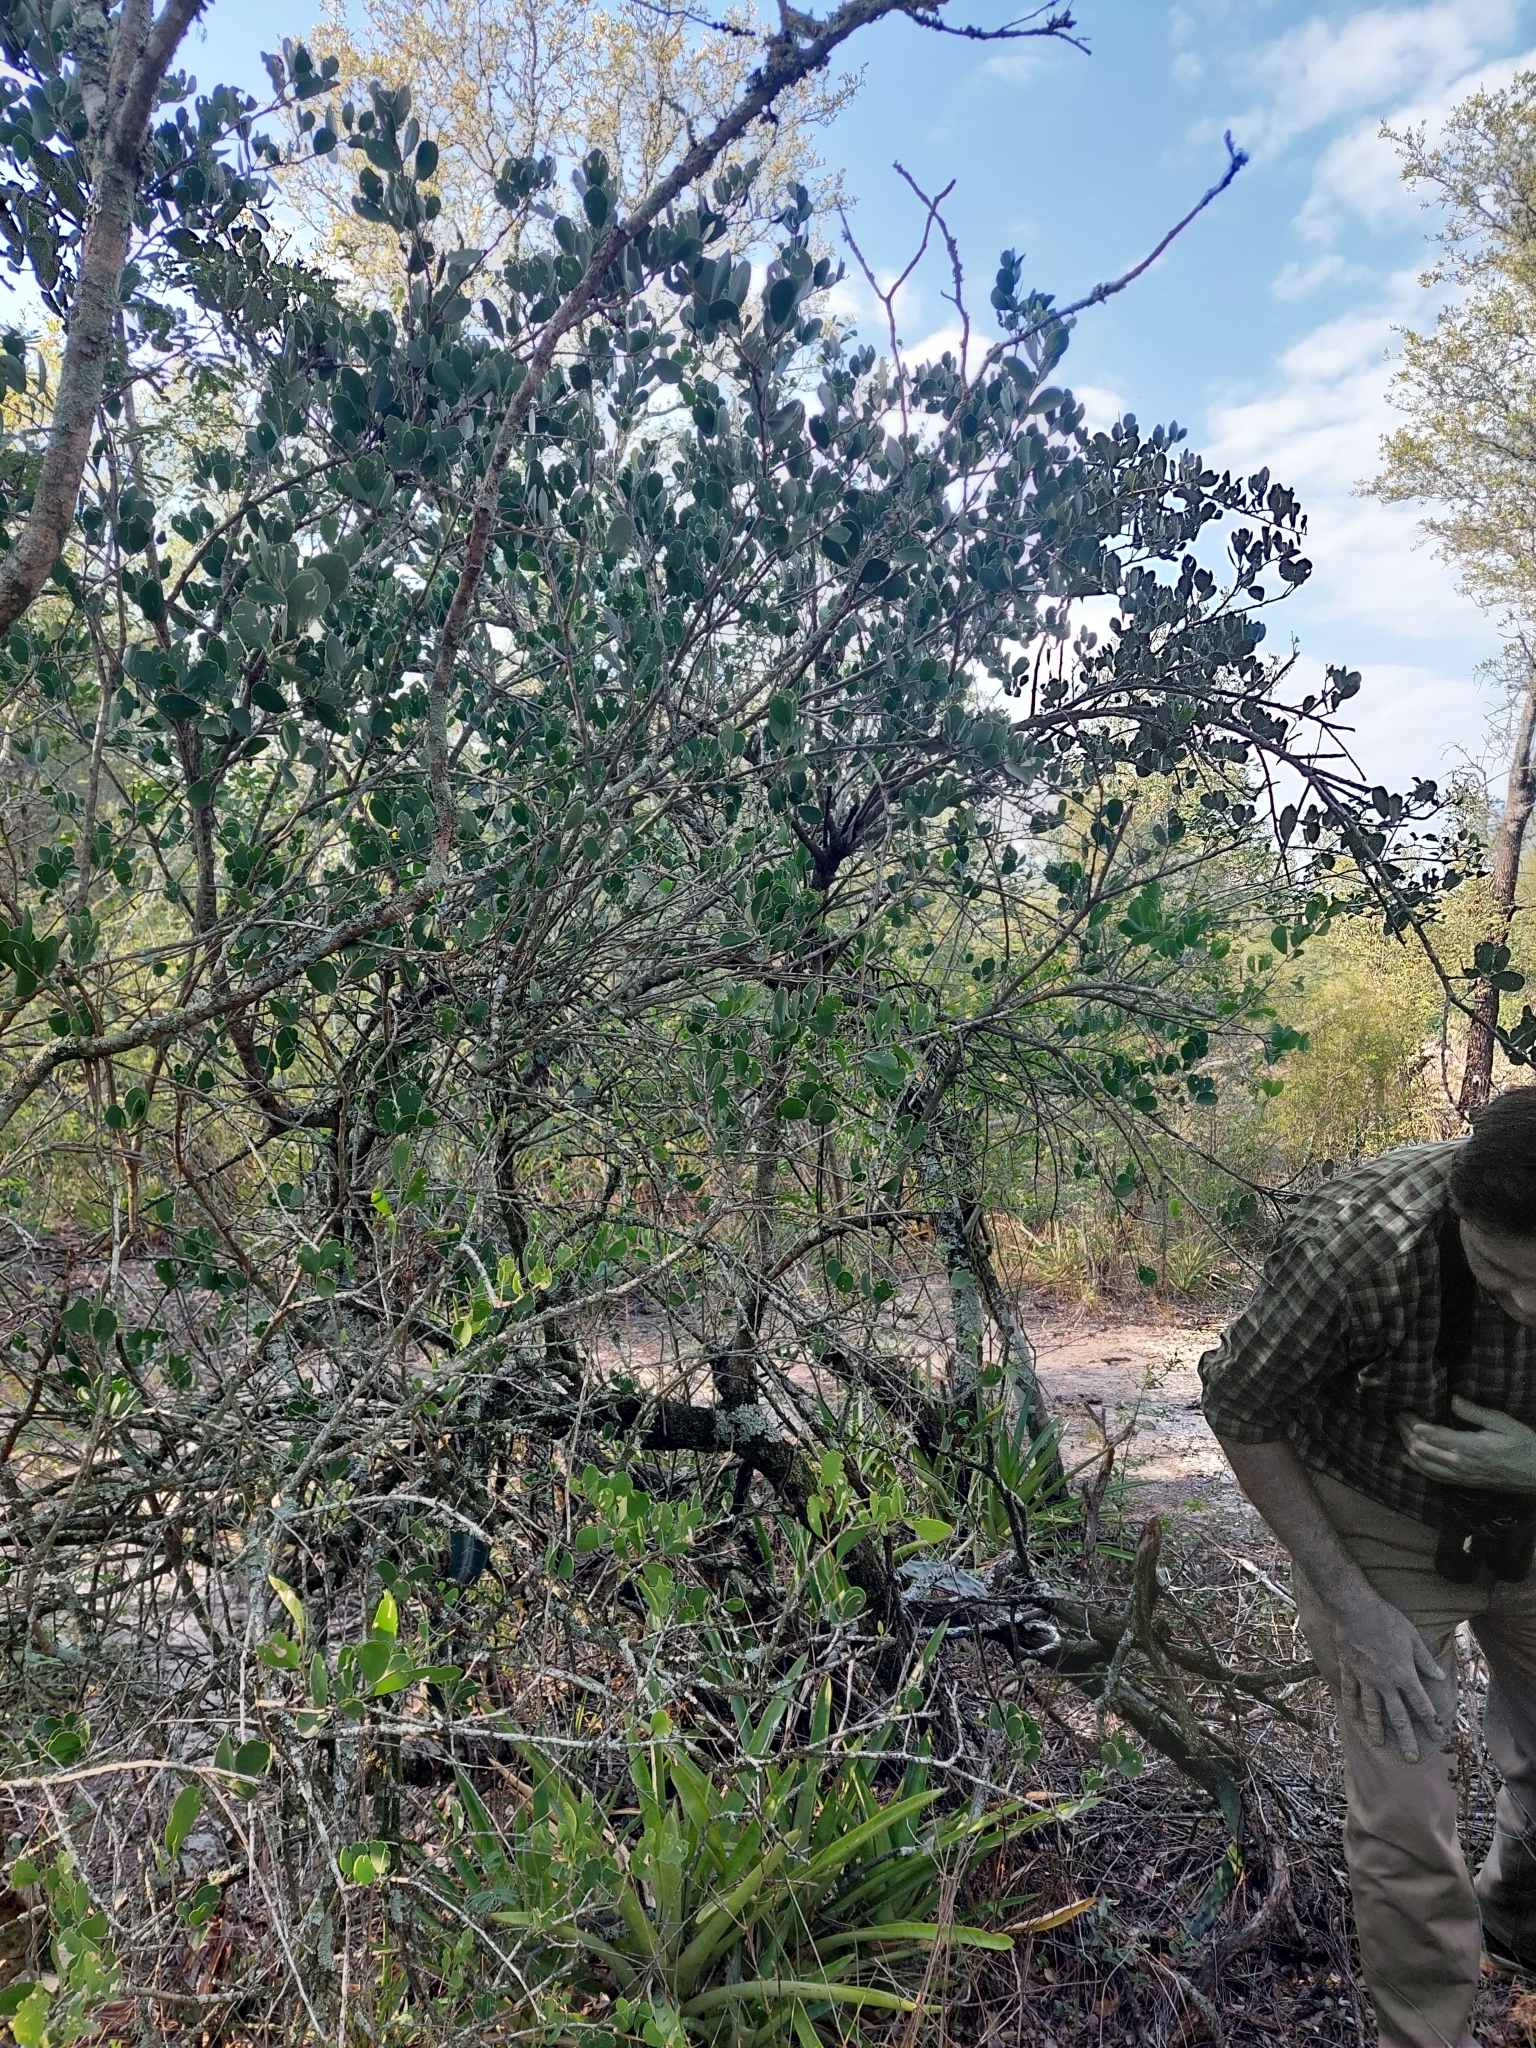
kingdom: Plantae
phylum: Tracheophyta
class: Magnoliopsida
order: Celastrales
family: Celastraceae
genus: Tricerma
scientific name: Tricerma vitis-idaeum
